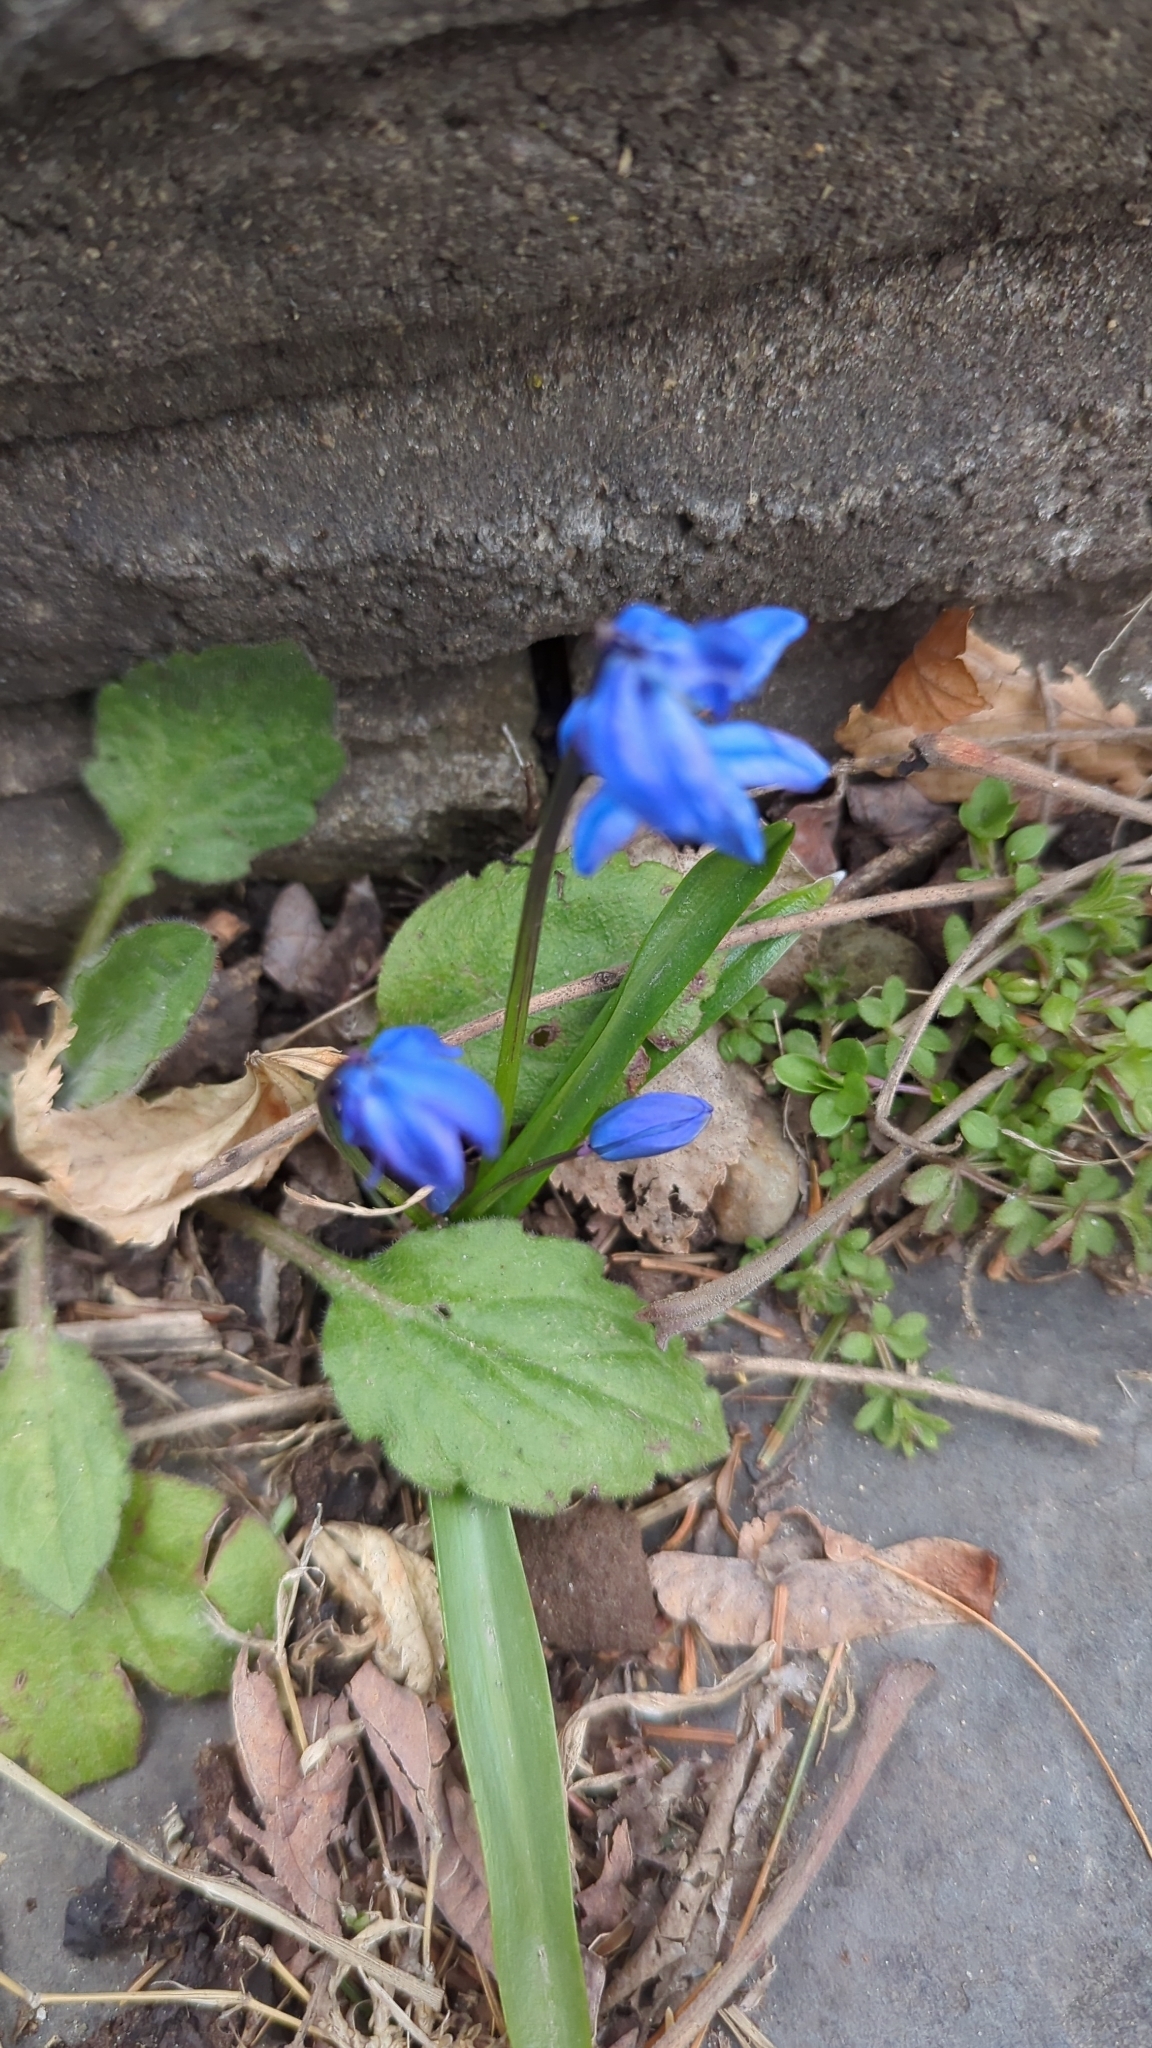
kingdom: Plantae
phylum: Tracheophyta
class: Liliopsida
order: Asparagales
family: Asparagaceae
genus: Scilla
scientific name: Scilla siberica
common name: Siberian squill
